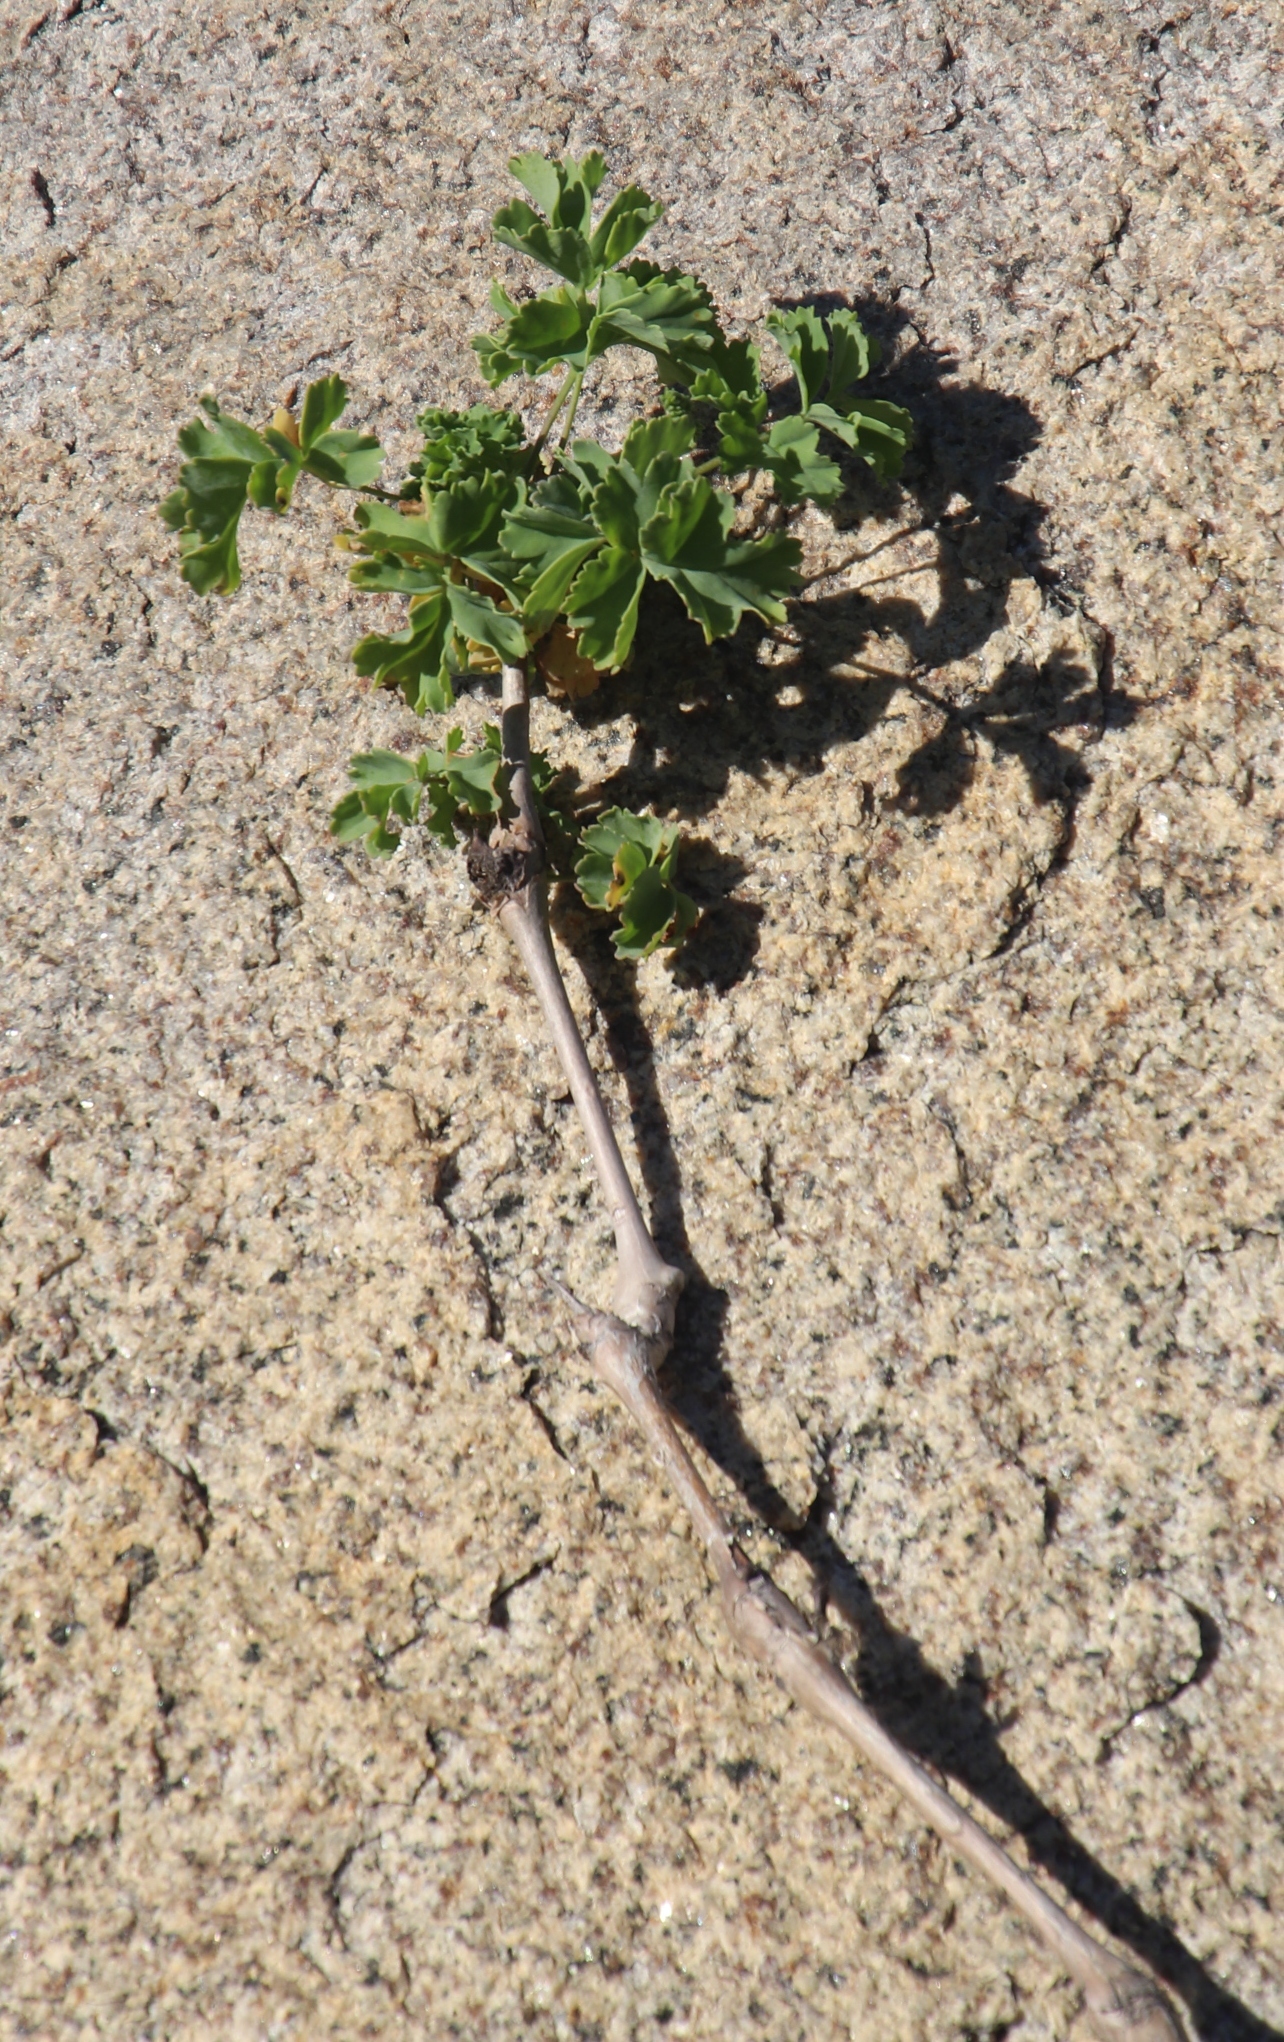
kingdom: Plantae
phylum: Tracheophyta
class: Magnoliopsida
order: Geraniales
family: Geraniaceae
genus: Pelargonium
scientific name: Pelargonium gibbosum
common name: Gouty geranium
